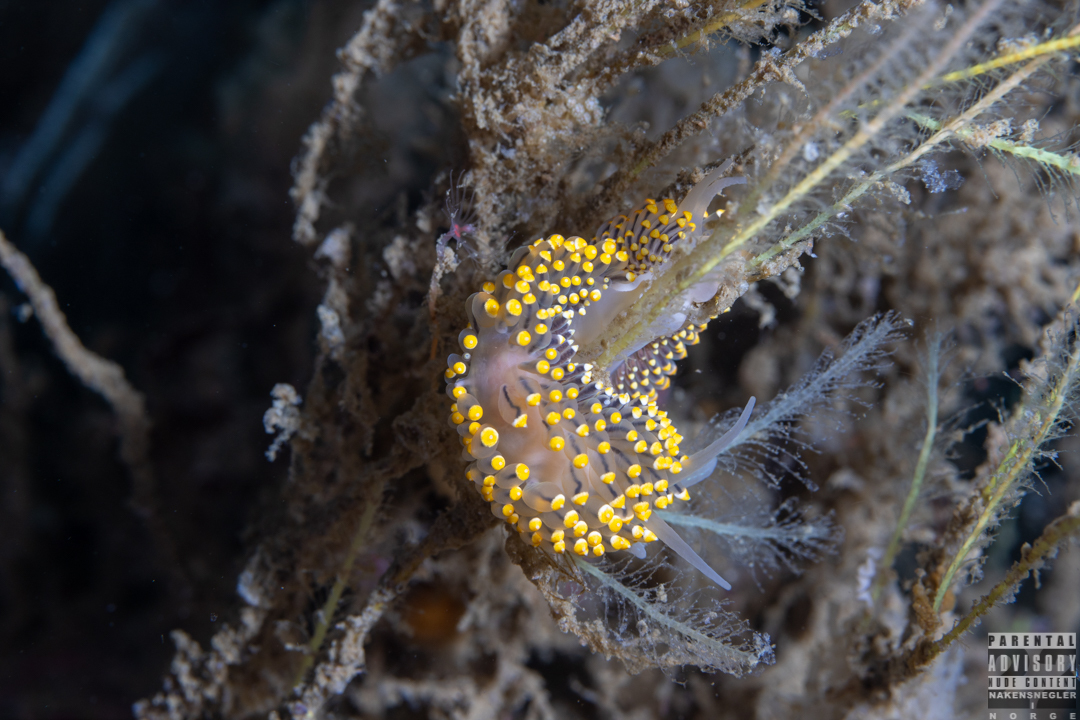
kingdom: Animalia
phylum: Mollusca
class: Gastropoda
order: Nudibranchia
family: Eubranchidae
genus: Eubranchus
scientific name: Eubranchus tricolor
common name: Painted balloon aeolis
